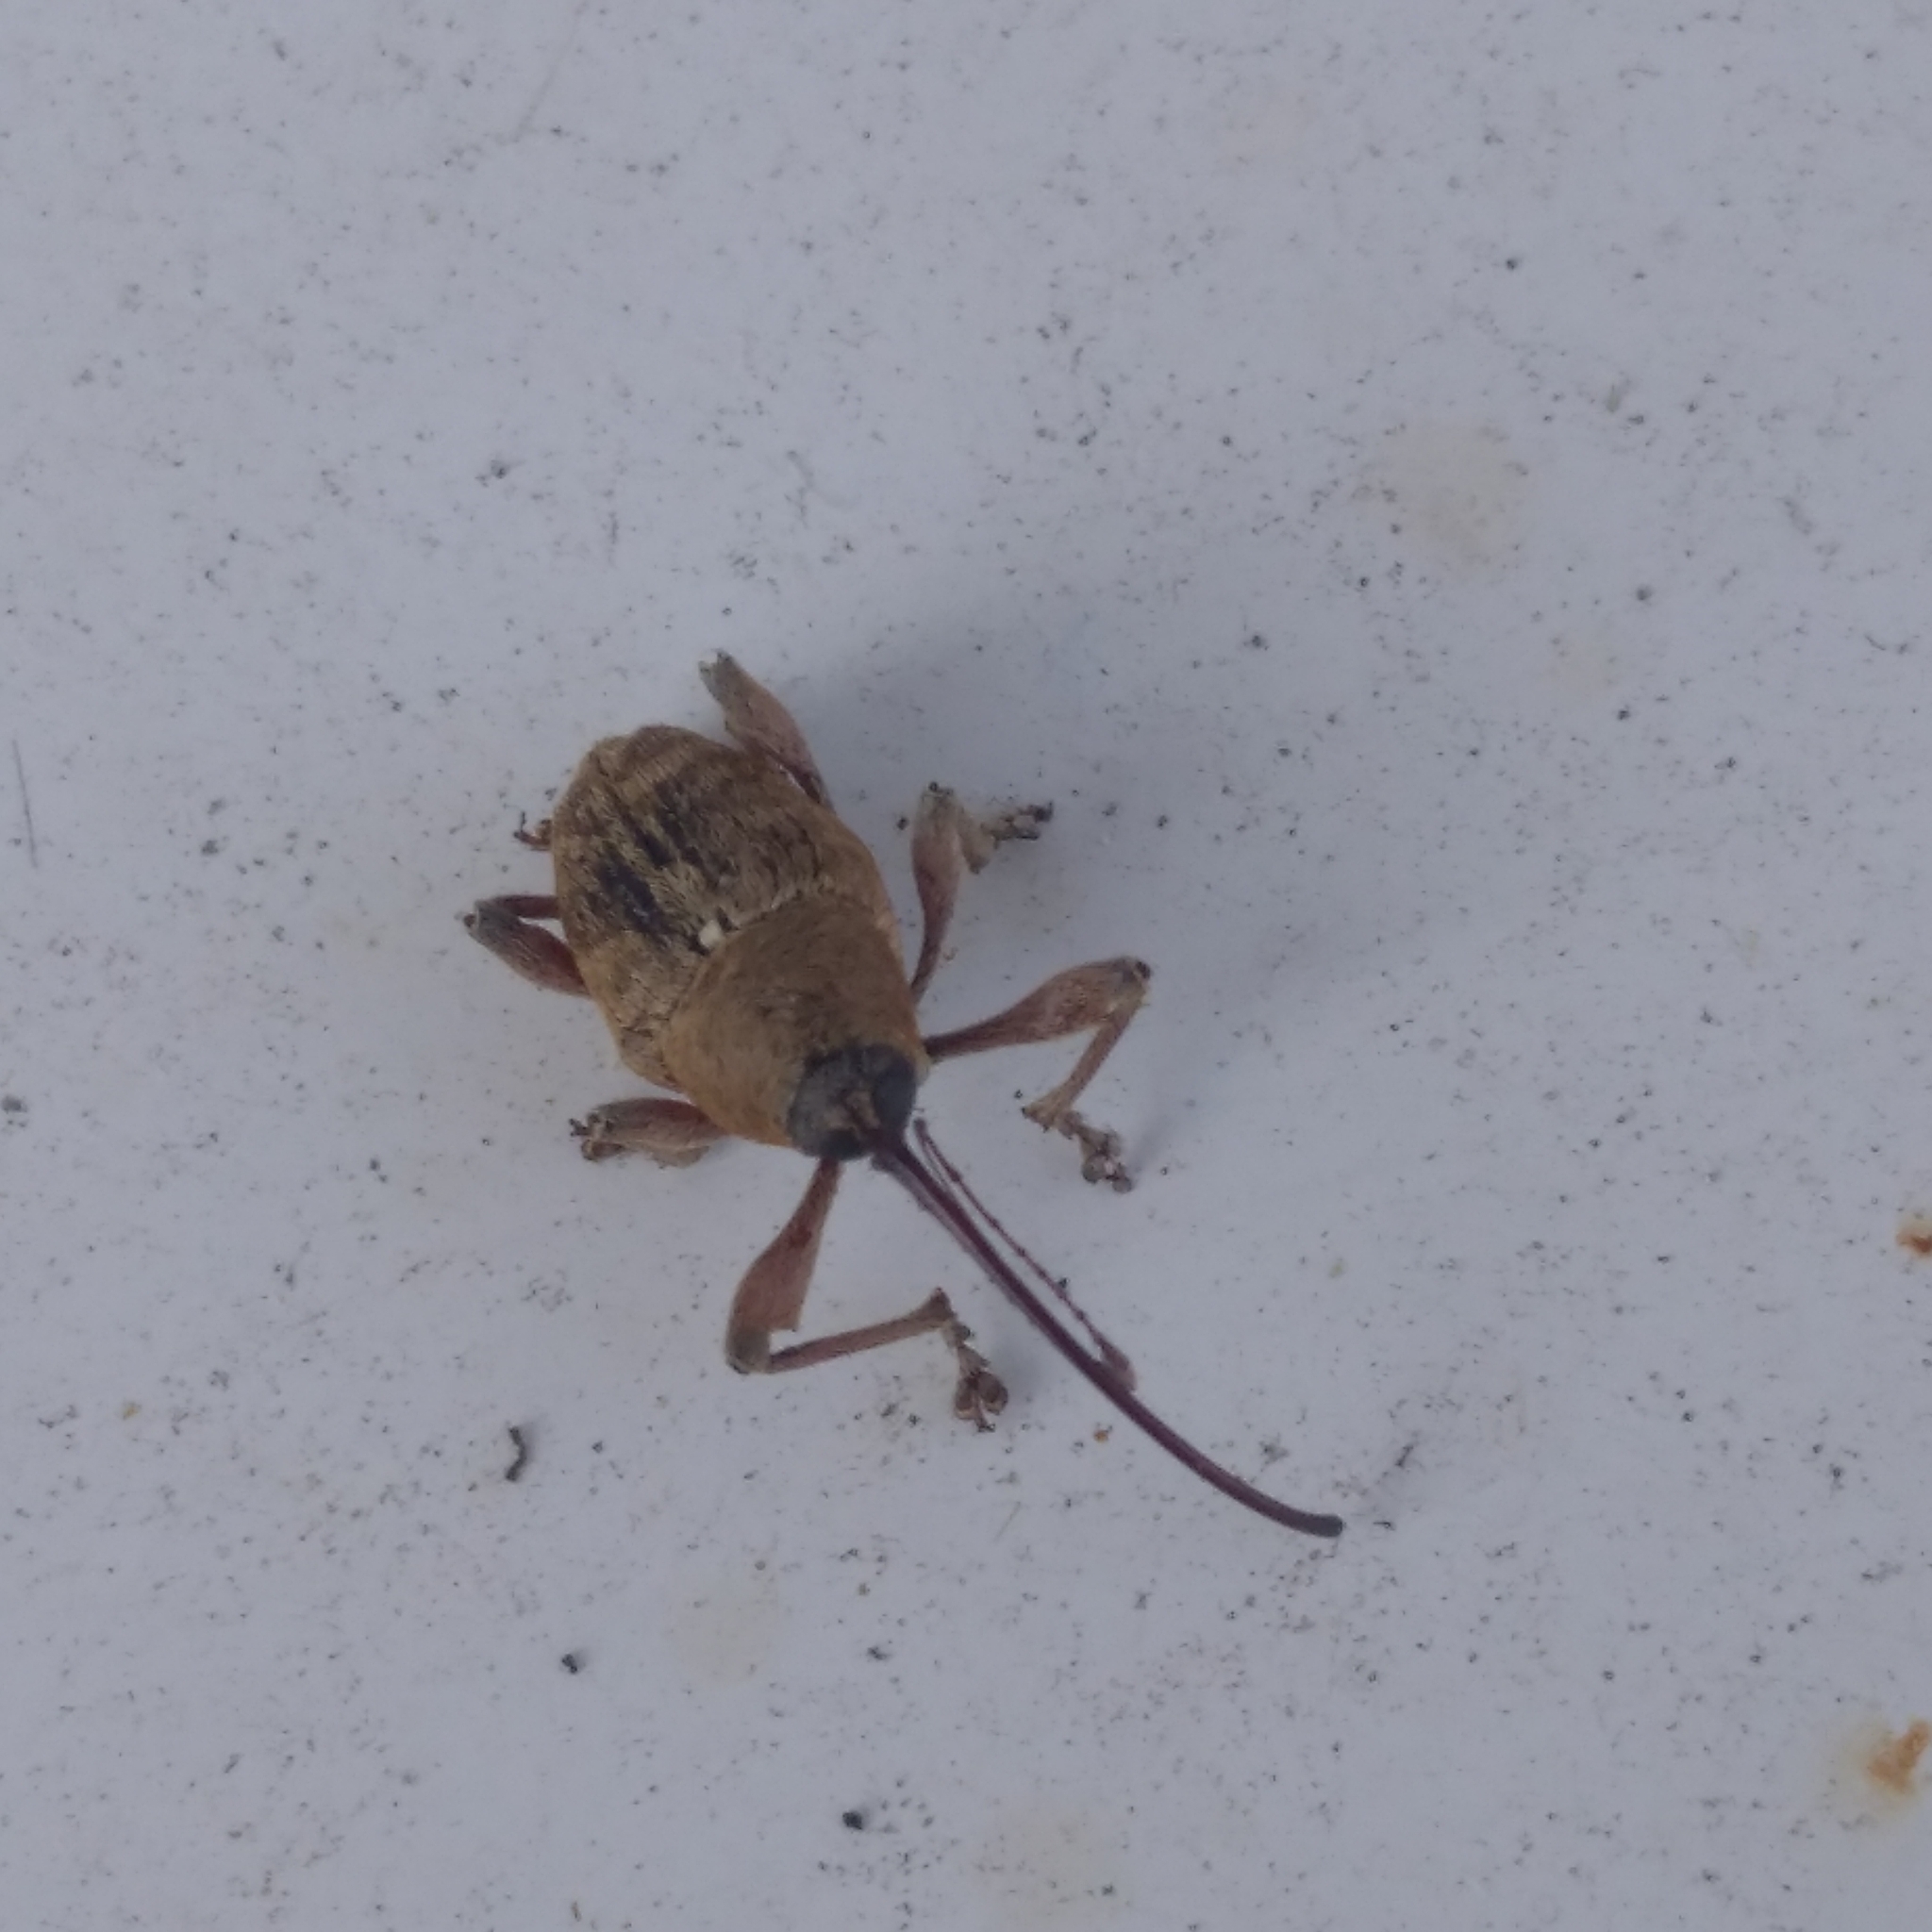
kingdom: Animalia
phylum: Arthropoda
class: Insecta
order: Coleoptera
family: Curculionidae
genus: Curculio
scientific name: Curculio glandium
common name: Acorn weevil
